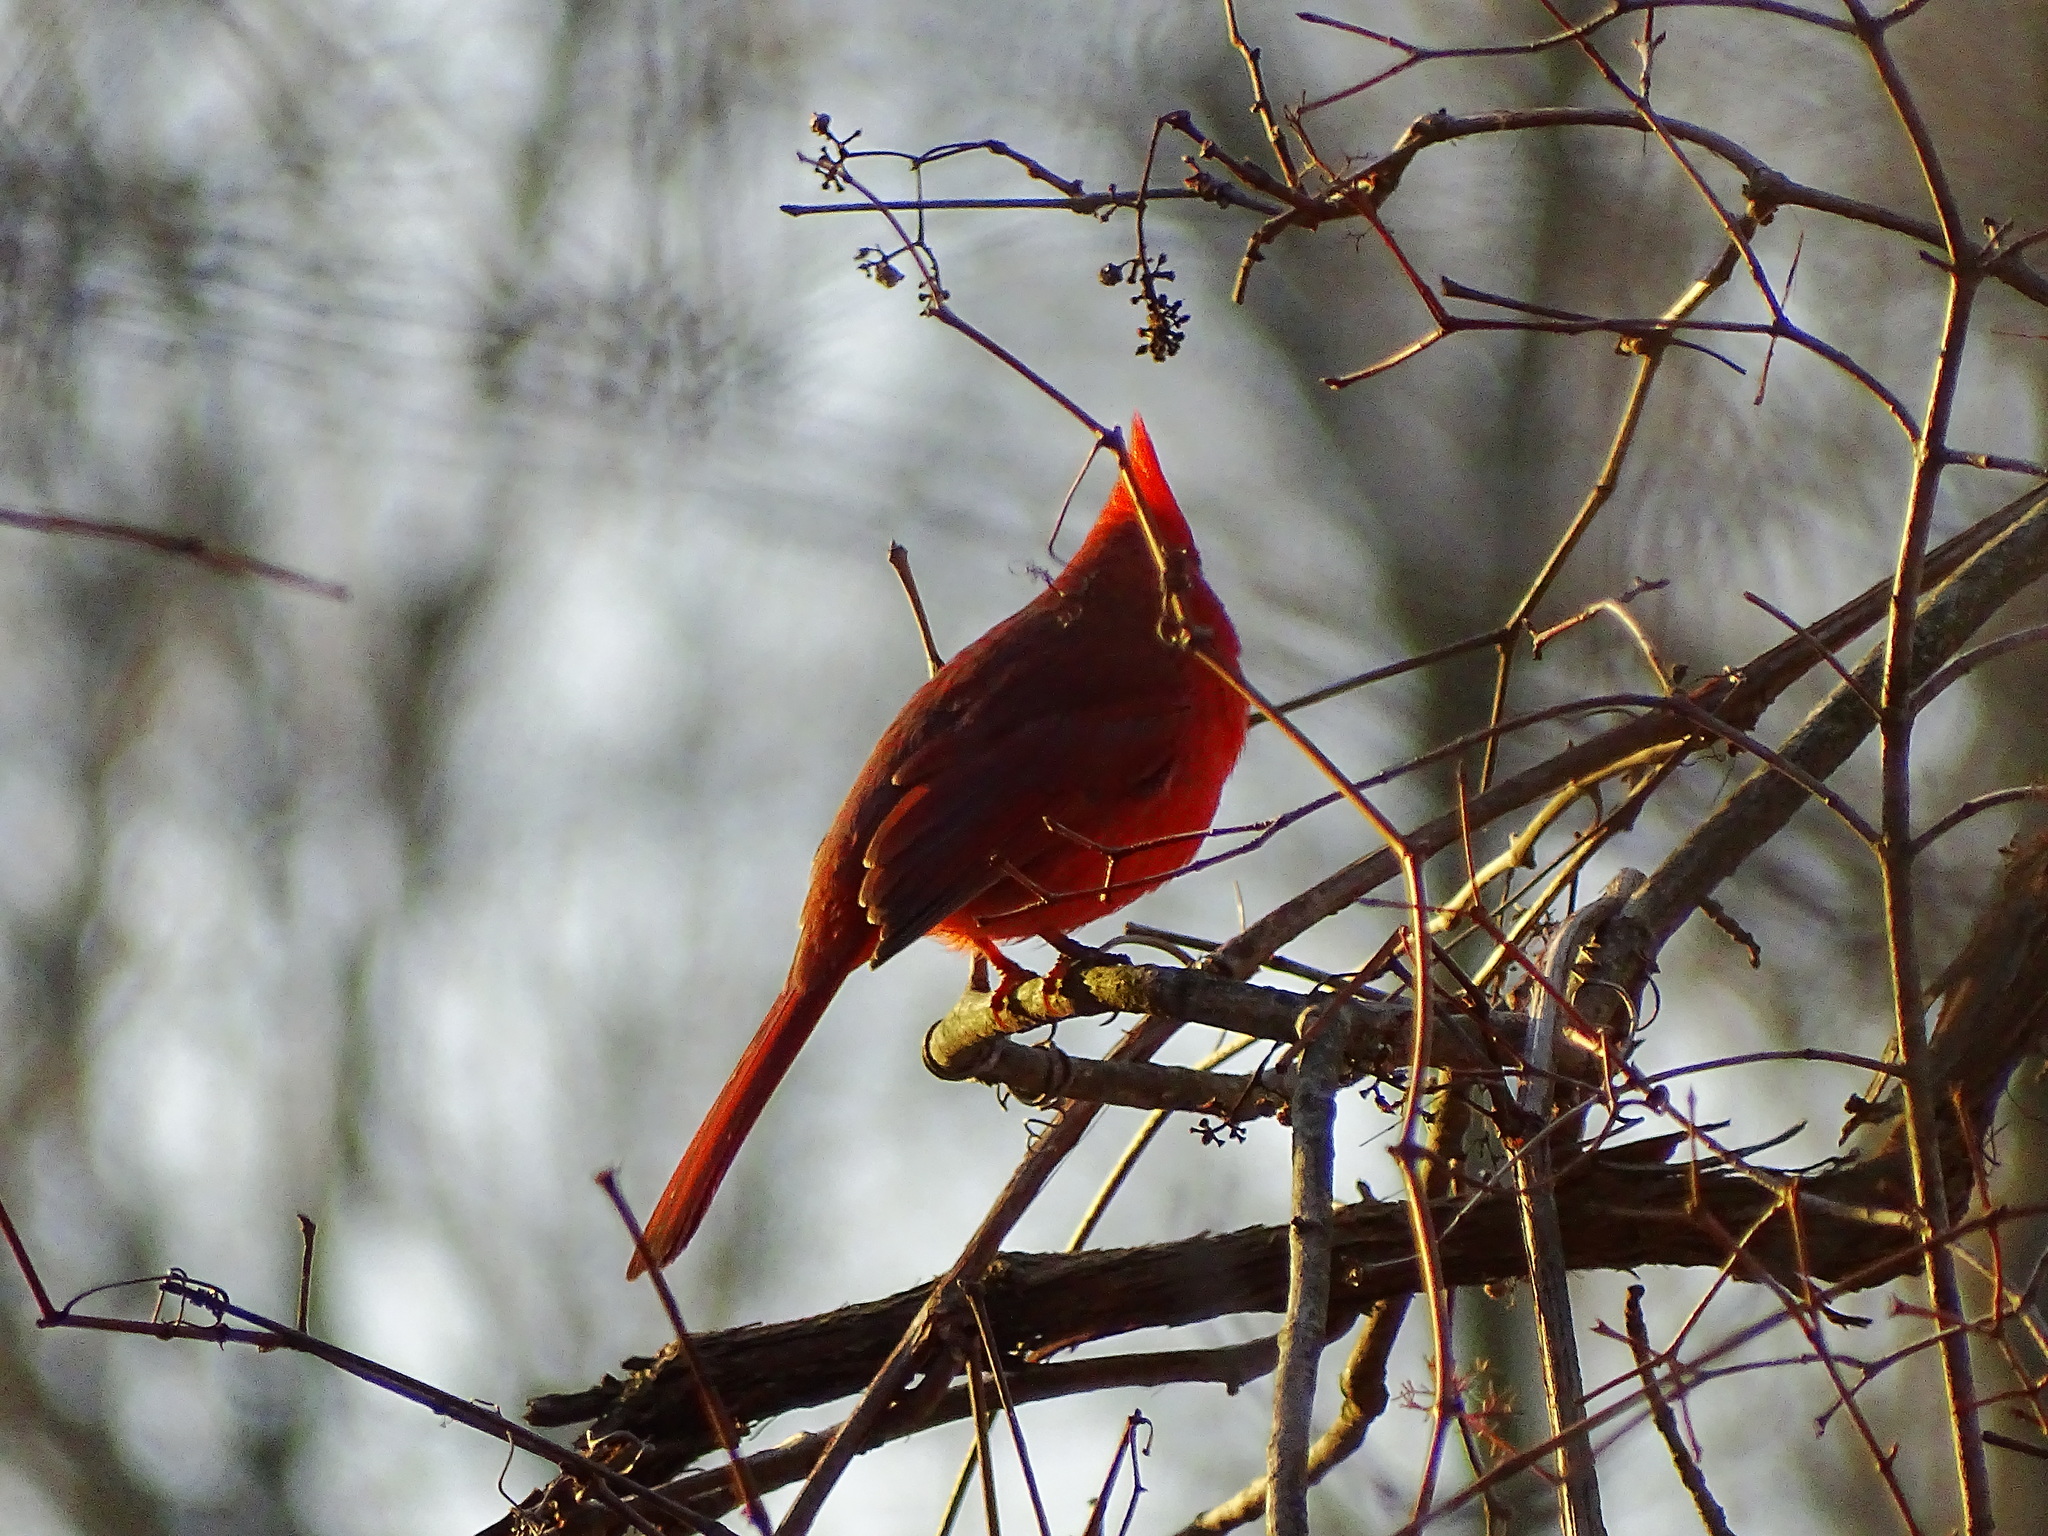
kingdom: Animalia
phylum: Chordata
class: Aves
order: Passeriformes
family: Cardinalidae
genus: Cardinalis
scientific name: Cardinalis cardinalis
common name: Northern cardinal
